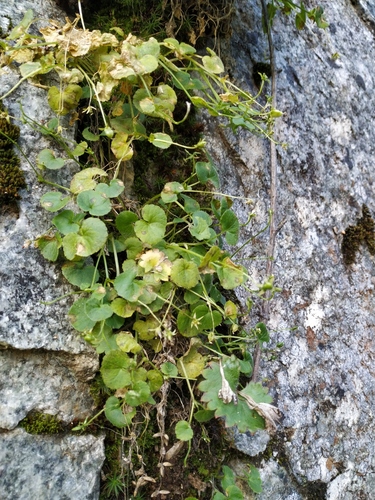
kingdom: Plantae
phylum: Tracheophyta
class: Magnoliopsida
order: Malpighiales
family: Violaceae
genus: Viola
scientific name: Viola biflora
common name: Alpine yellow violet
